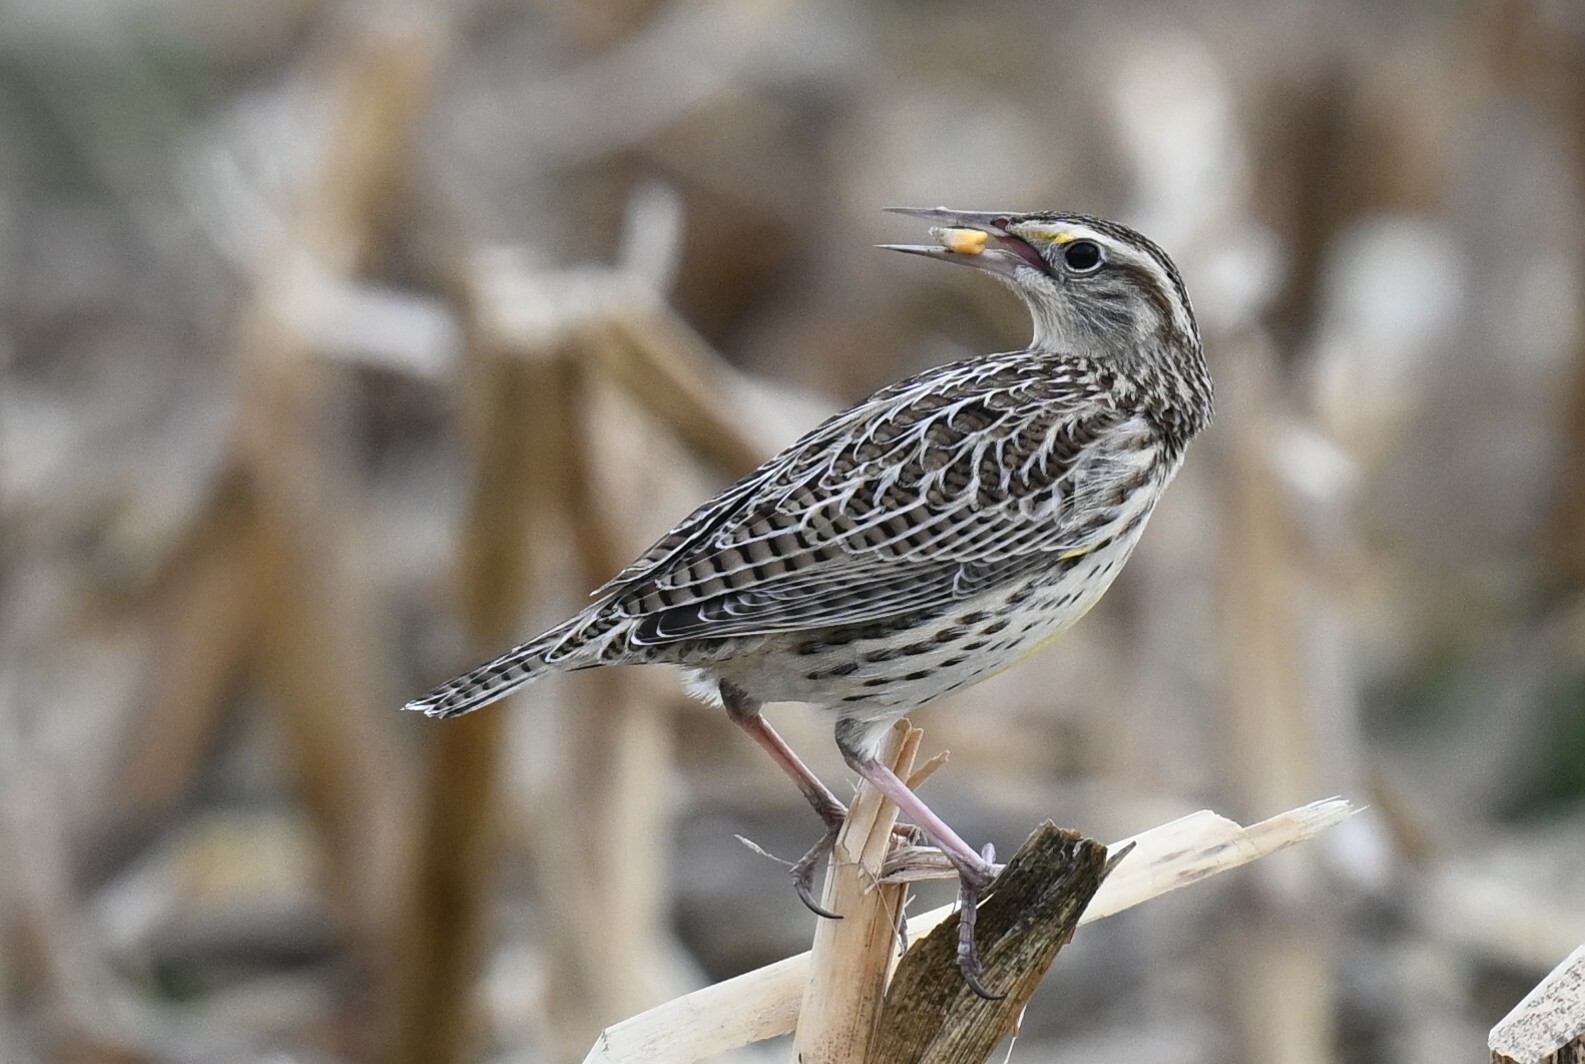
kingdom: Animalia
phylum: Chordata
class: Aves
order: Passeriformes
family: Icteridae
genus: Sturnella
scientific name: Sturnella magna
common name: Eastern meadowlark
